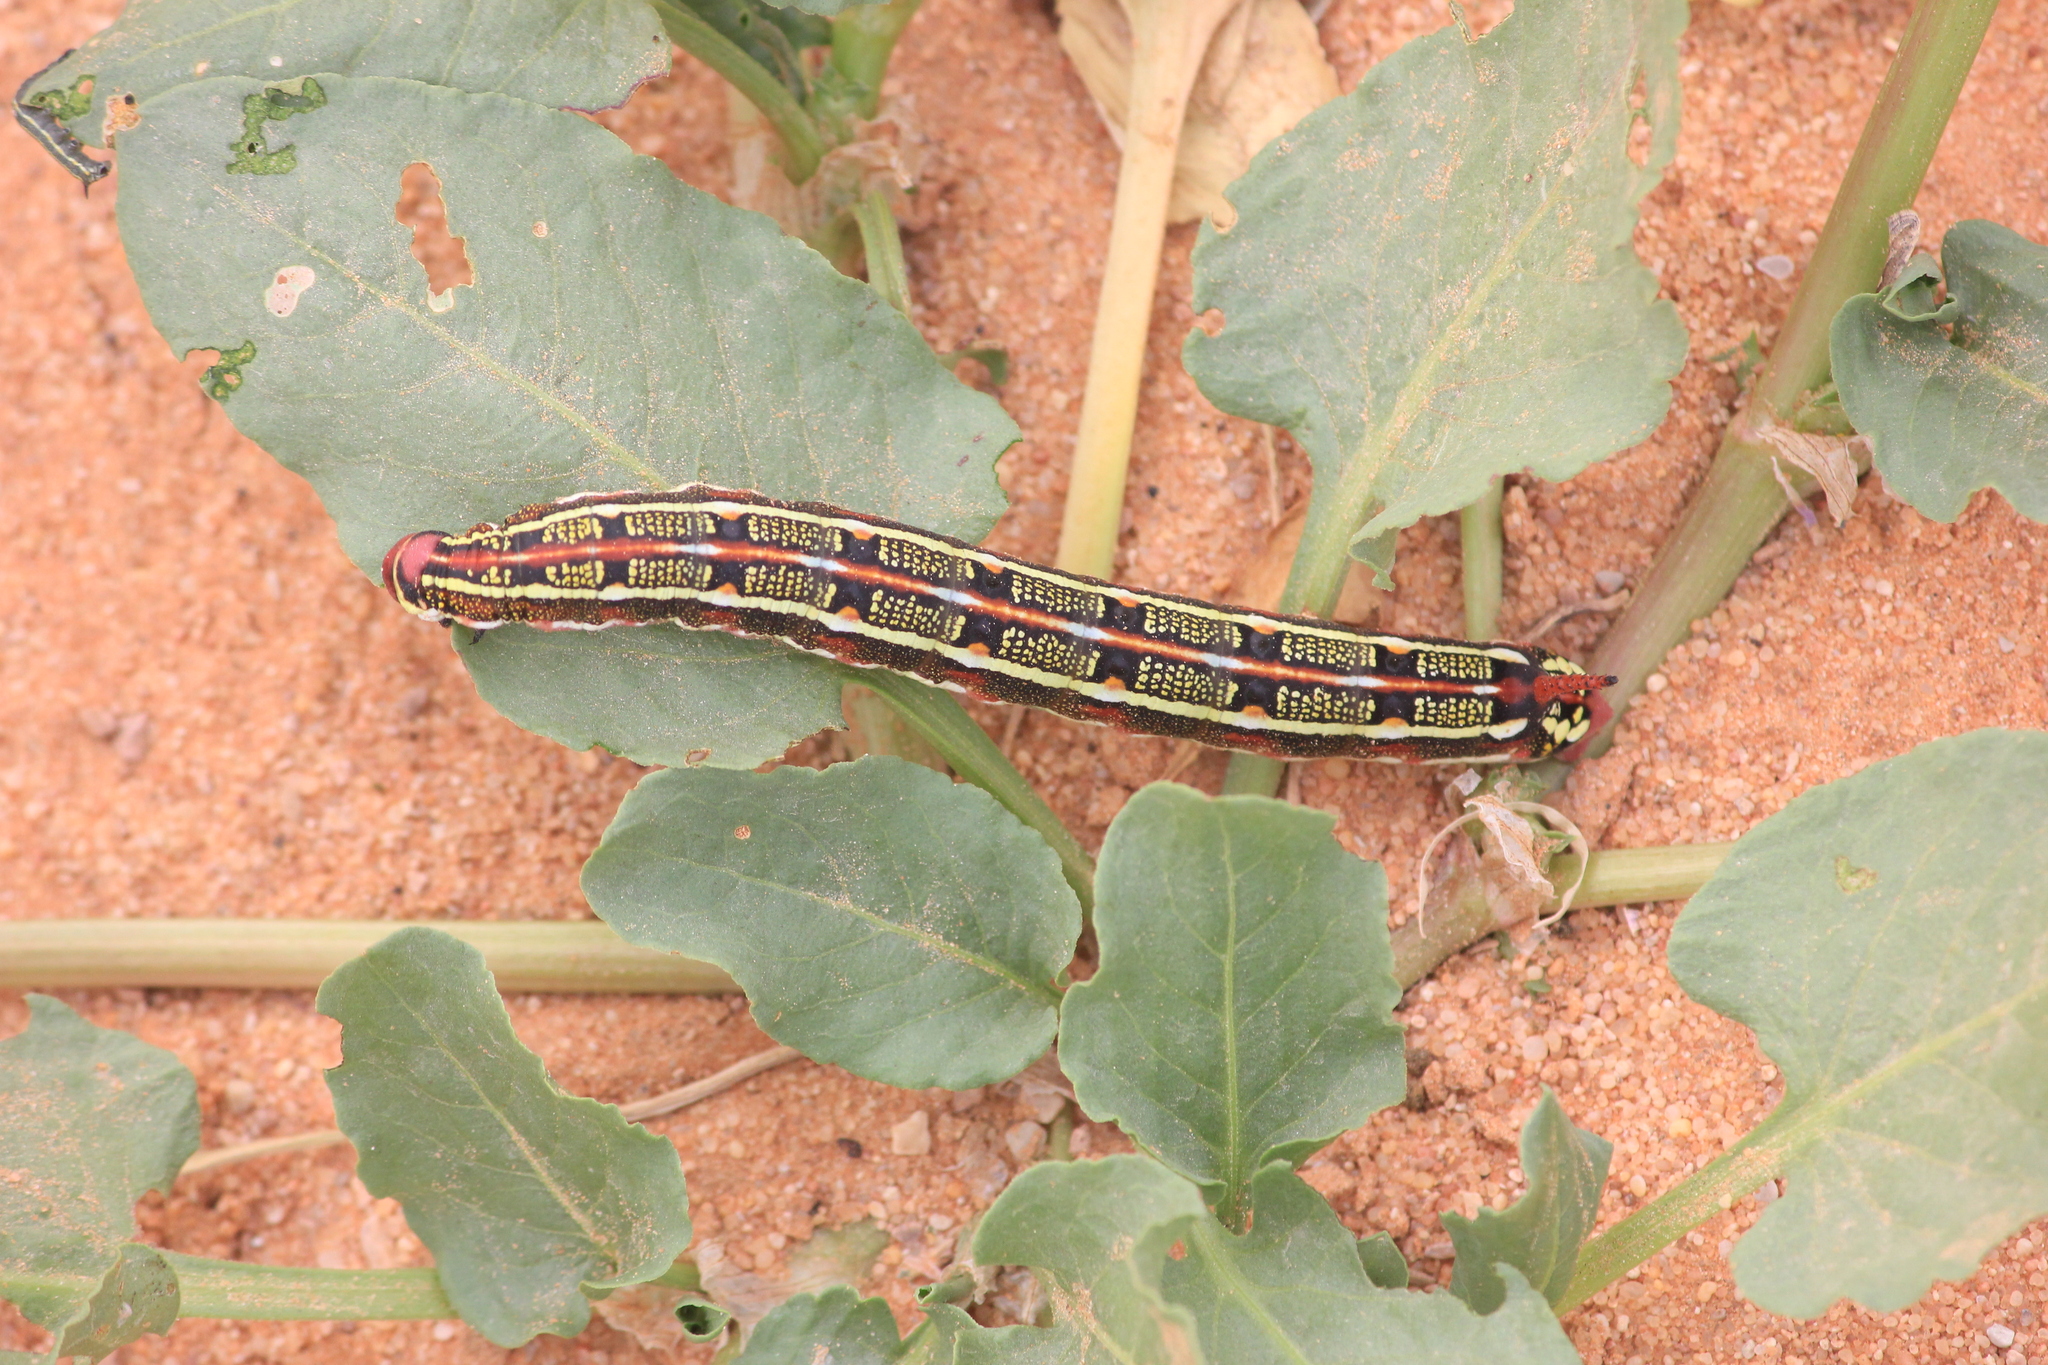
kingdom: Animalia
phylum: Arthropoda
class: Insecta
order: Lepidoptera
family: Sphingidae
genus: Hyles
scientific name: Hyles livornica
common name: Striped hawk-moth
